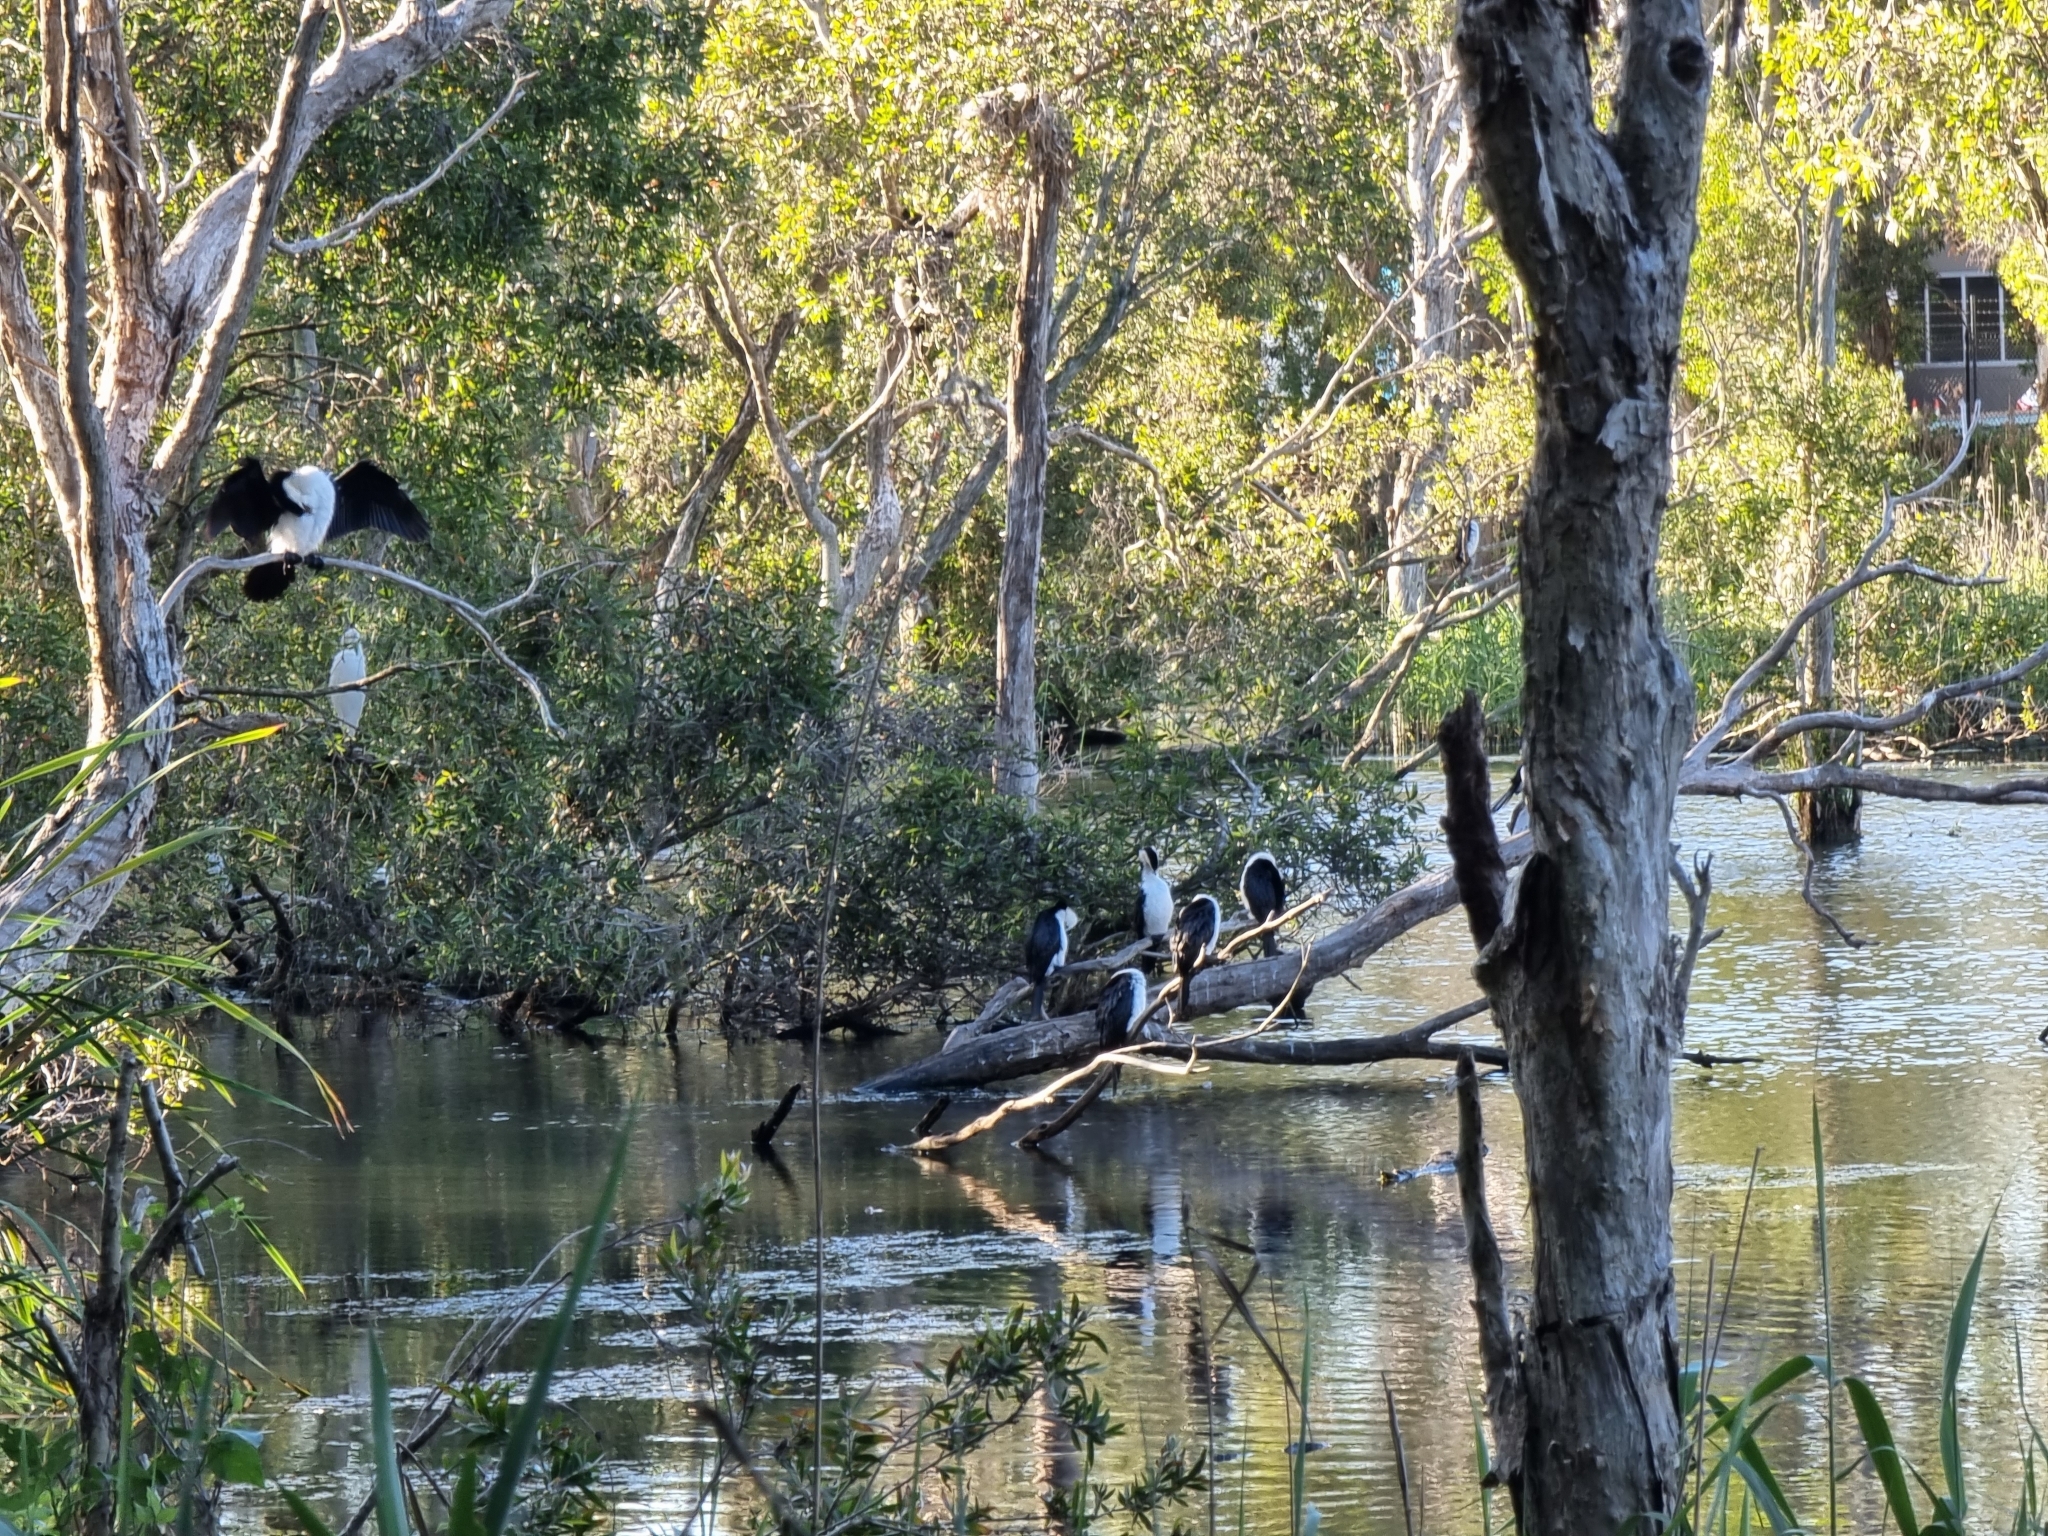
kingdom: Animalia
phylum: Chordata
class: Aves
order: Suliformes
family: Phalacrocoracidae
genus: Microcarbo
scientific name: Microcarbo melanoleucos
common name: Little pied cormorant
